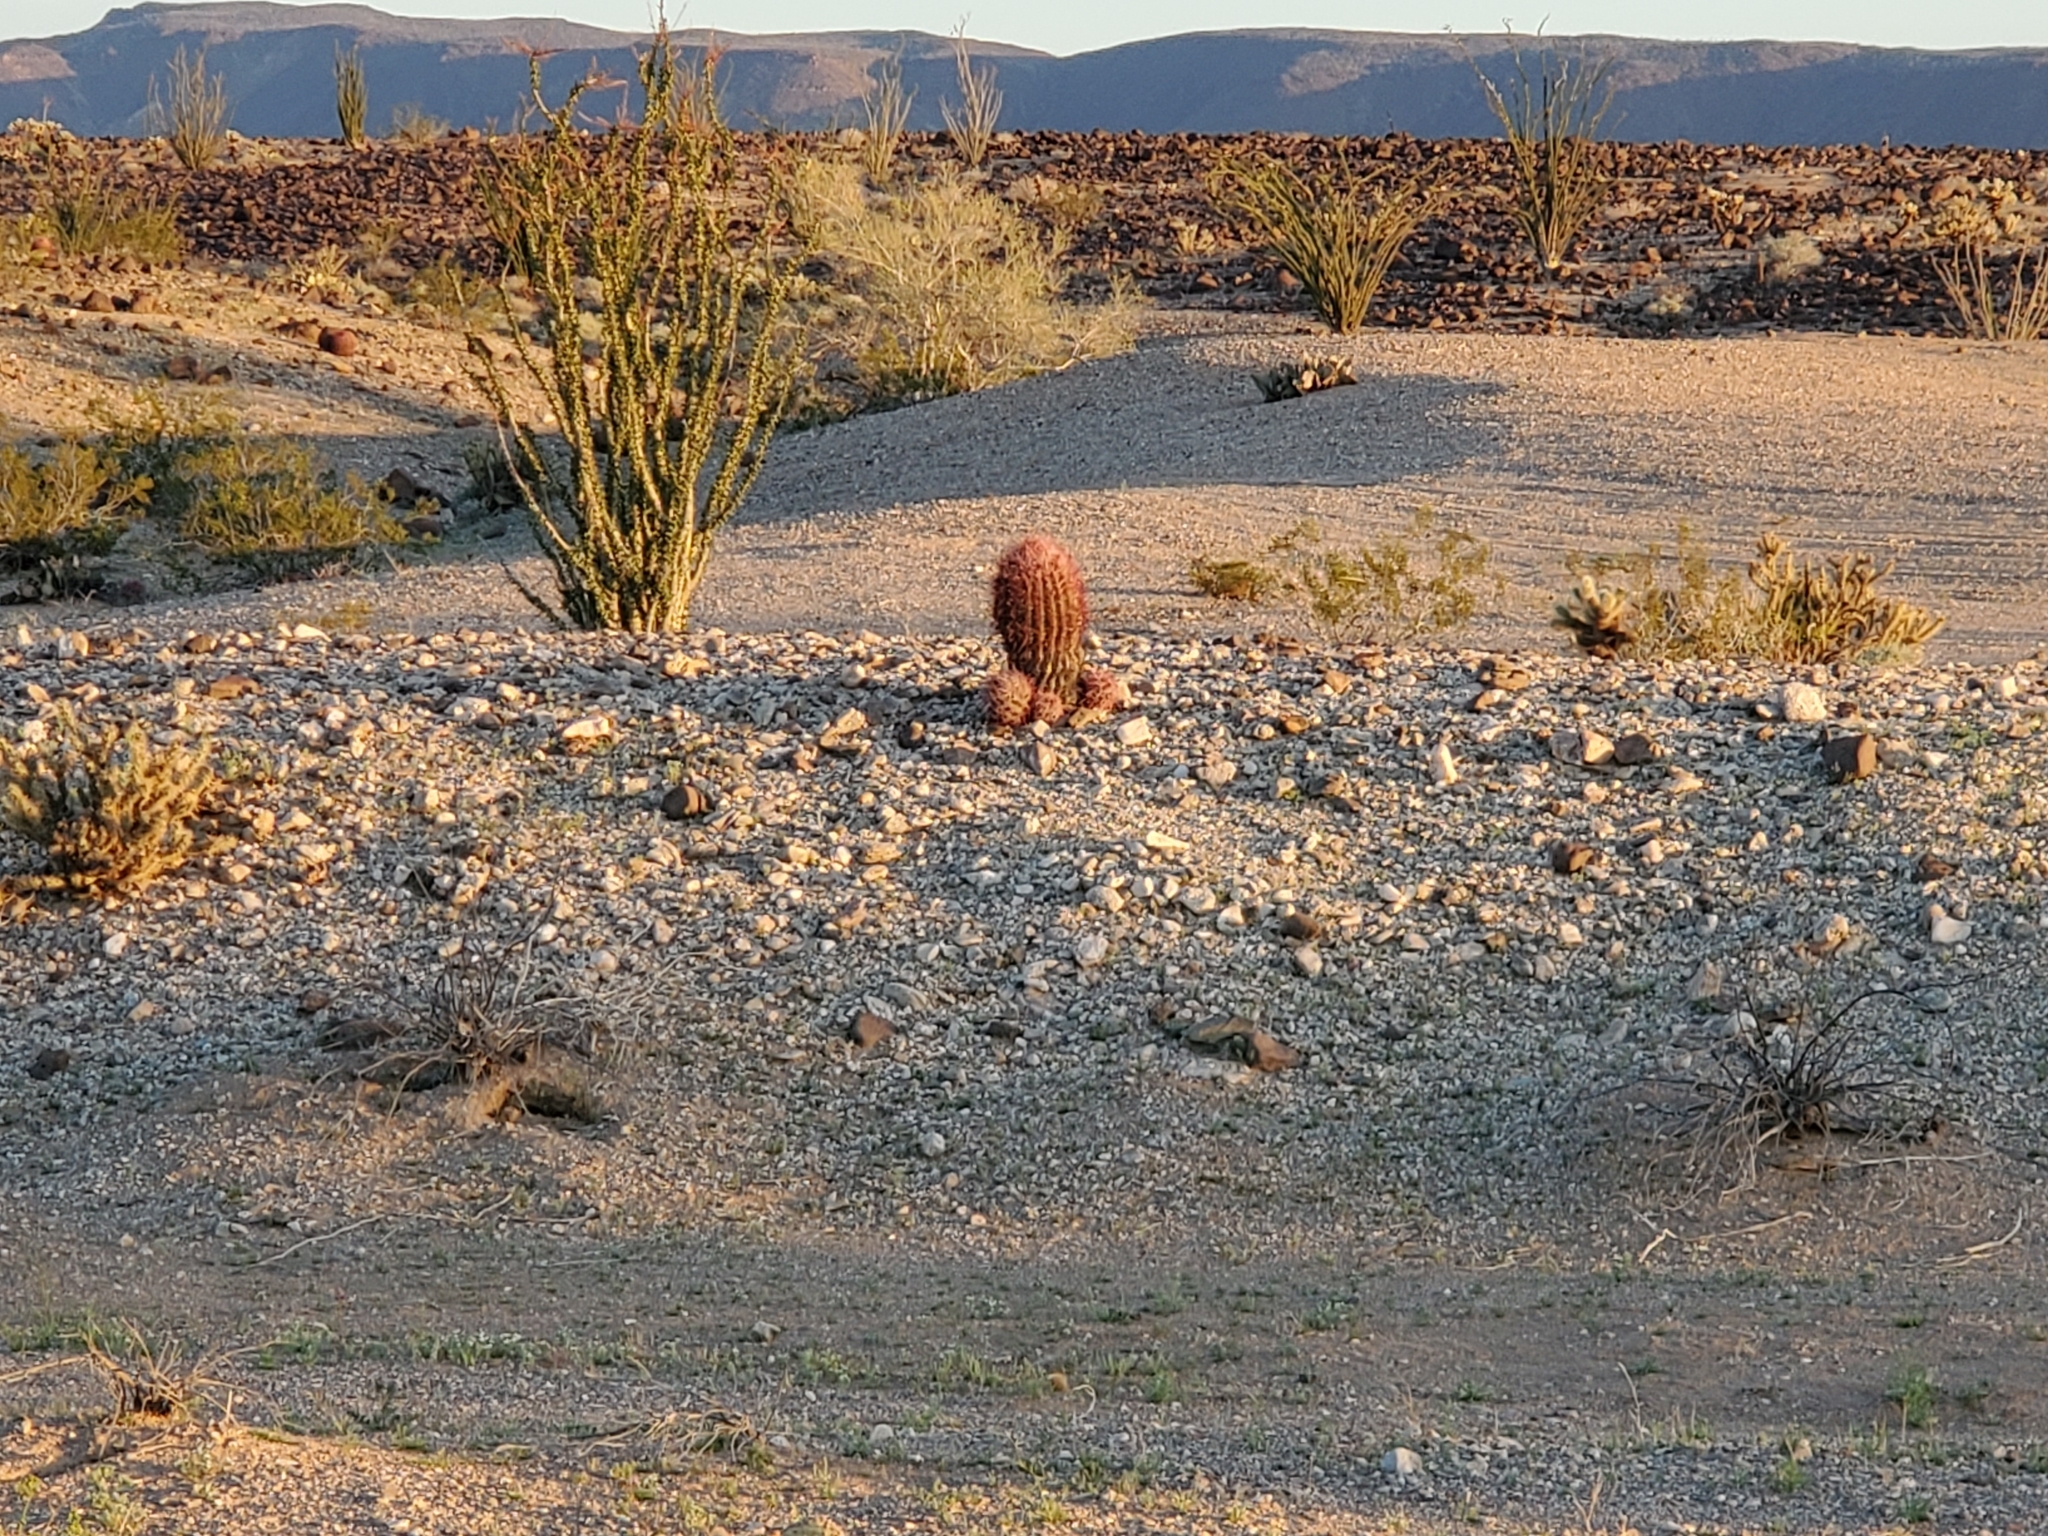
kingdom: Plantae
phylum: Tracheophyta
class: Magnoliopsida
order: Ericales
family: Fouquieriaceae
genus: Fouquieria
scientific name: Fouquieria splendens
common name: Vine-cactus
